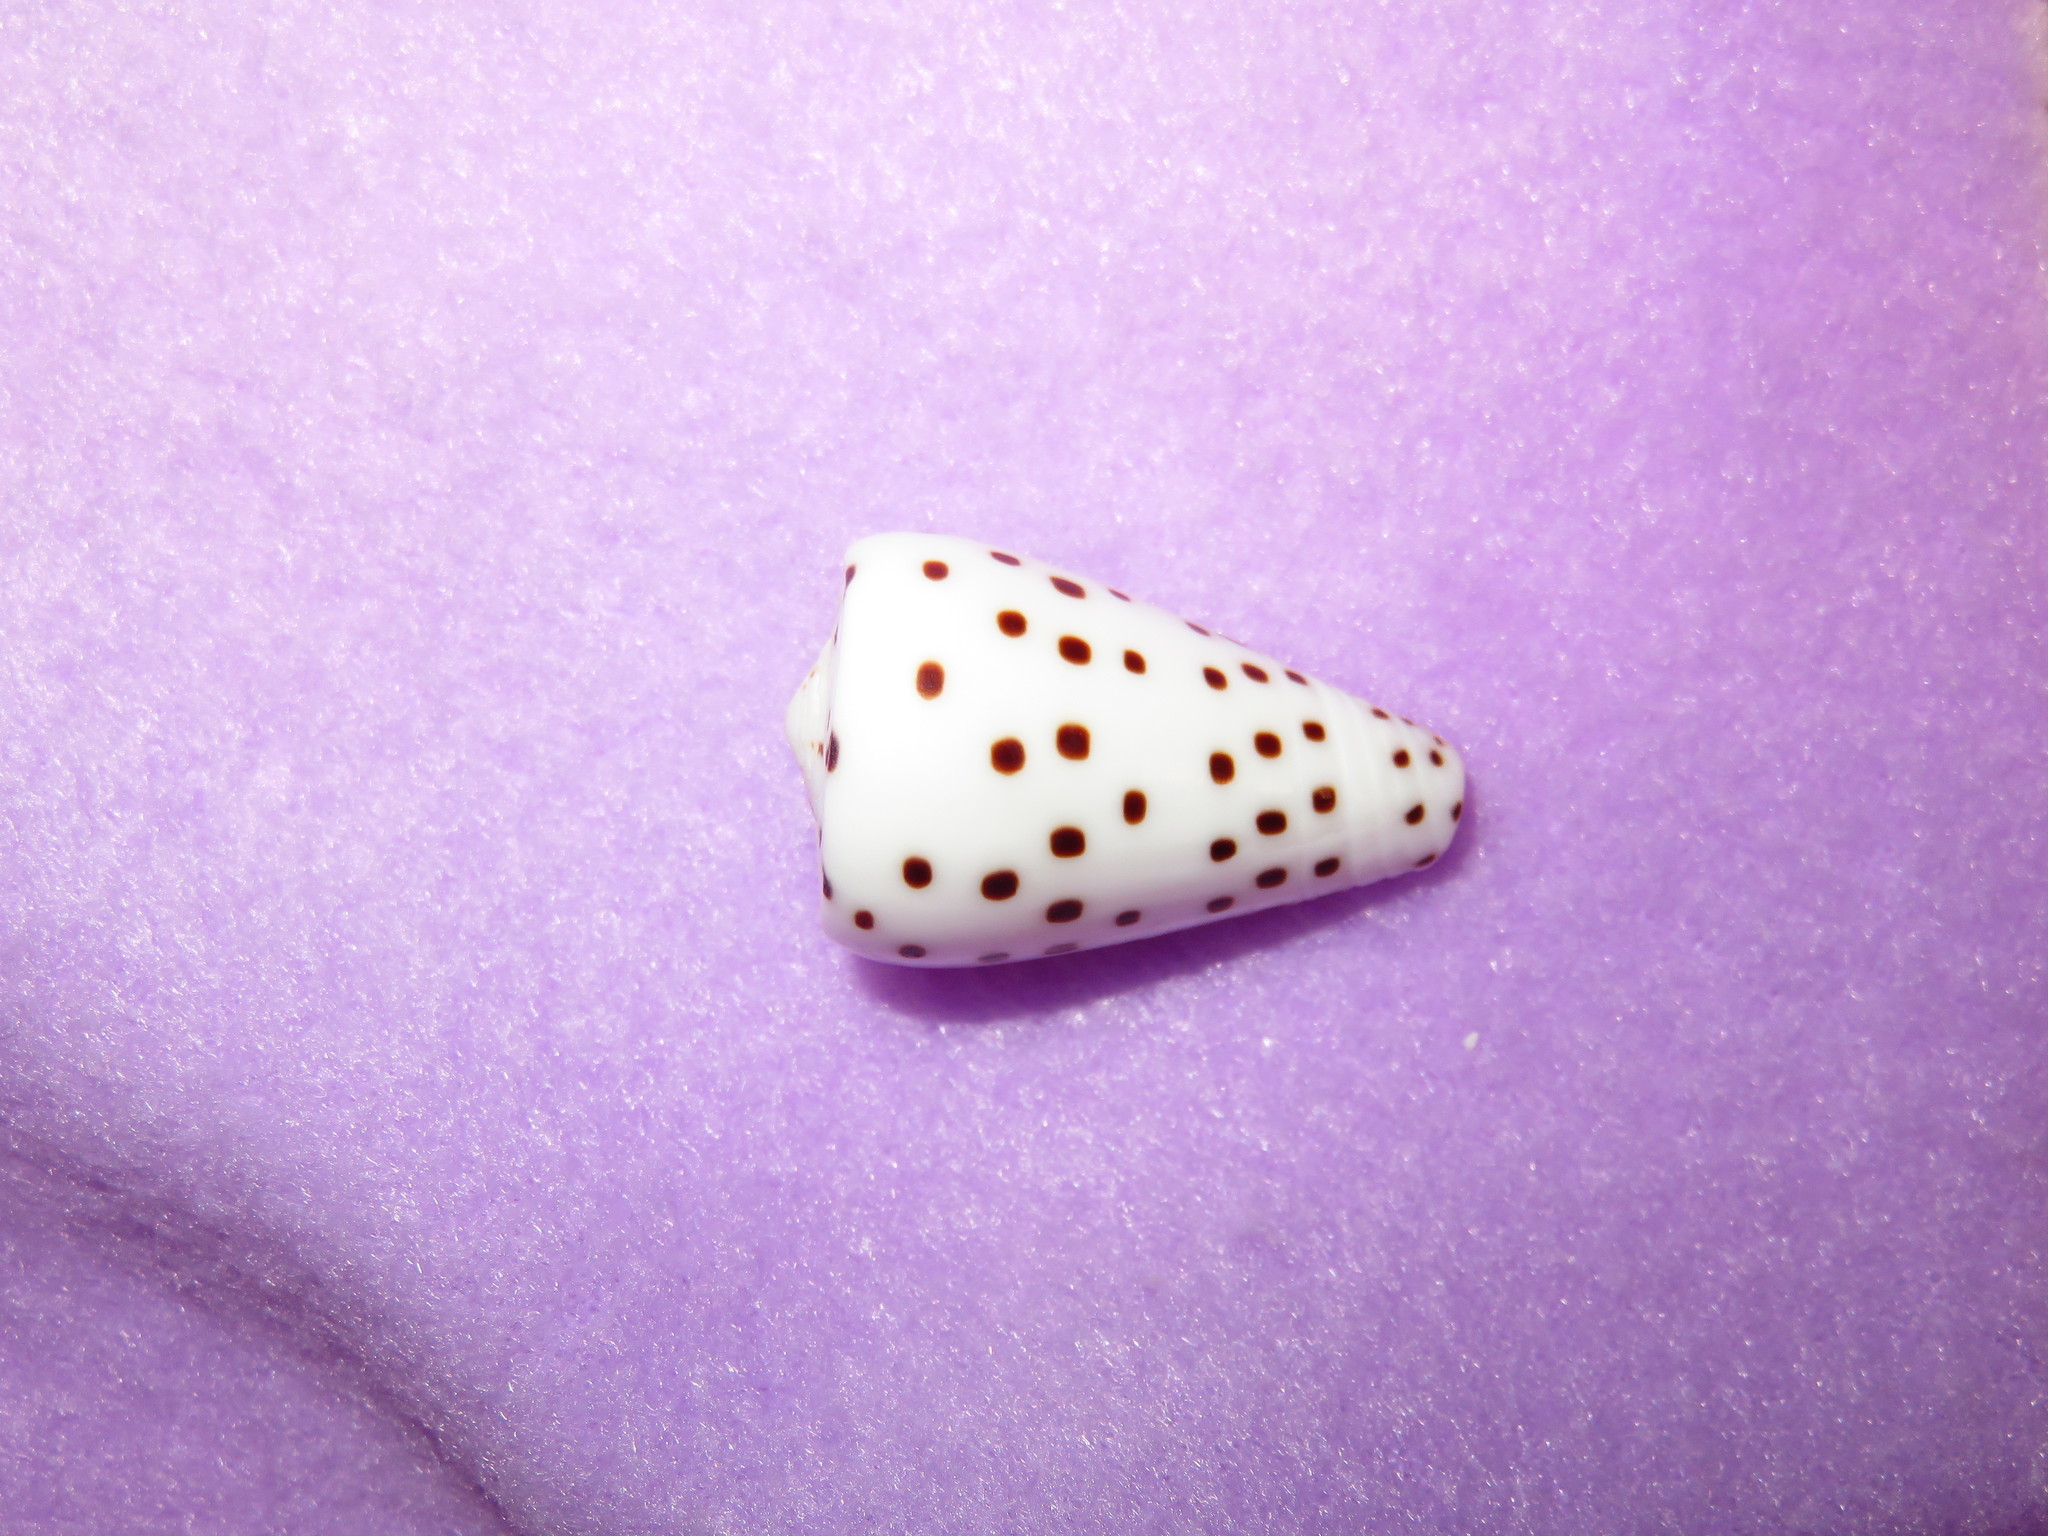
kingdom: Animalia
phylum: Mollusca
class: Gastropoda
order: Neogastropoda
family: Conidae
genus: Conus
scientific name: Conus eburneus
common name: Ivory cone
